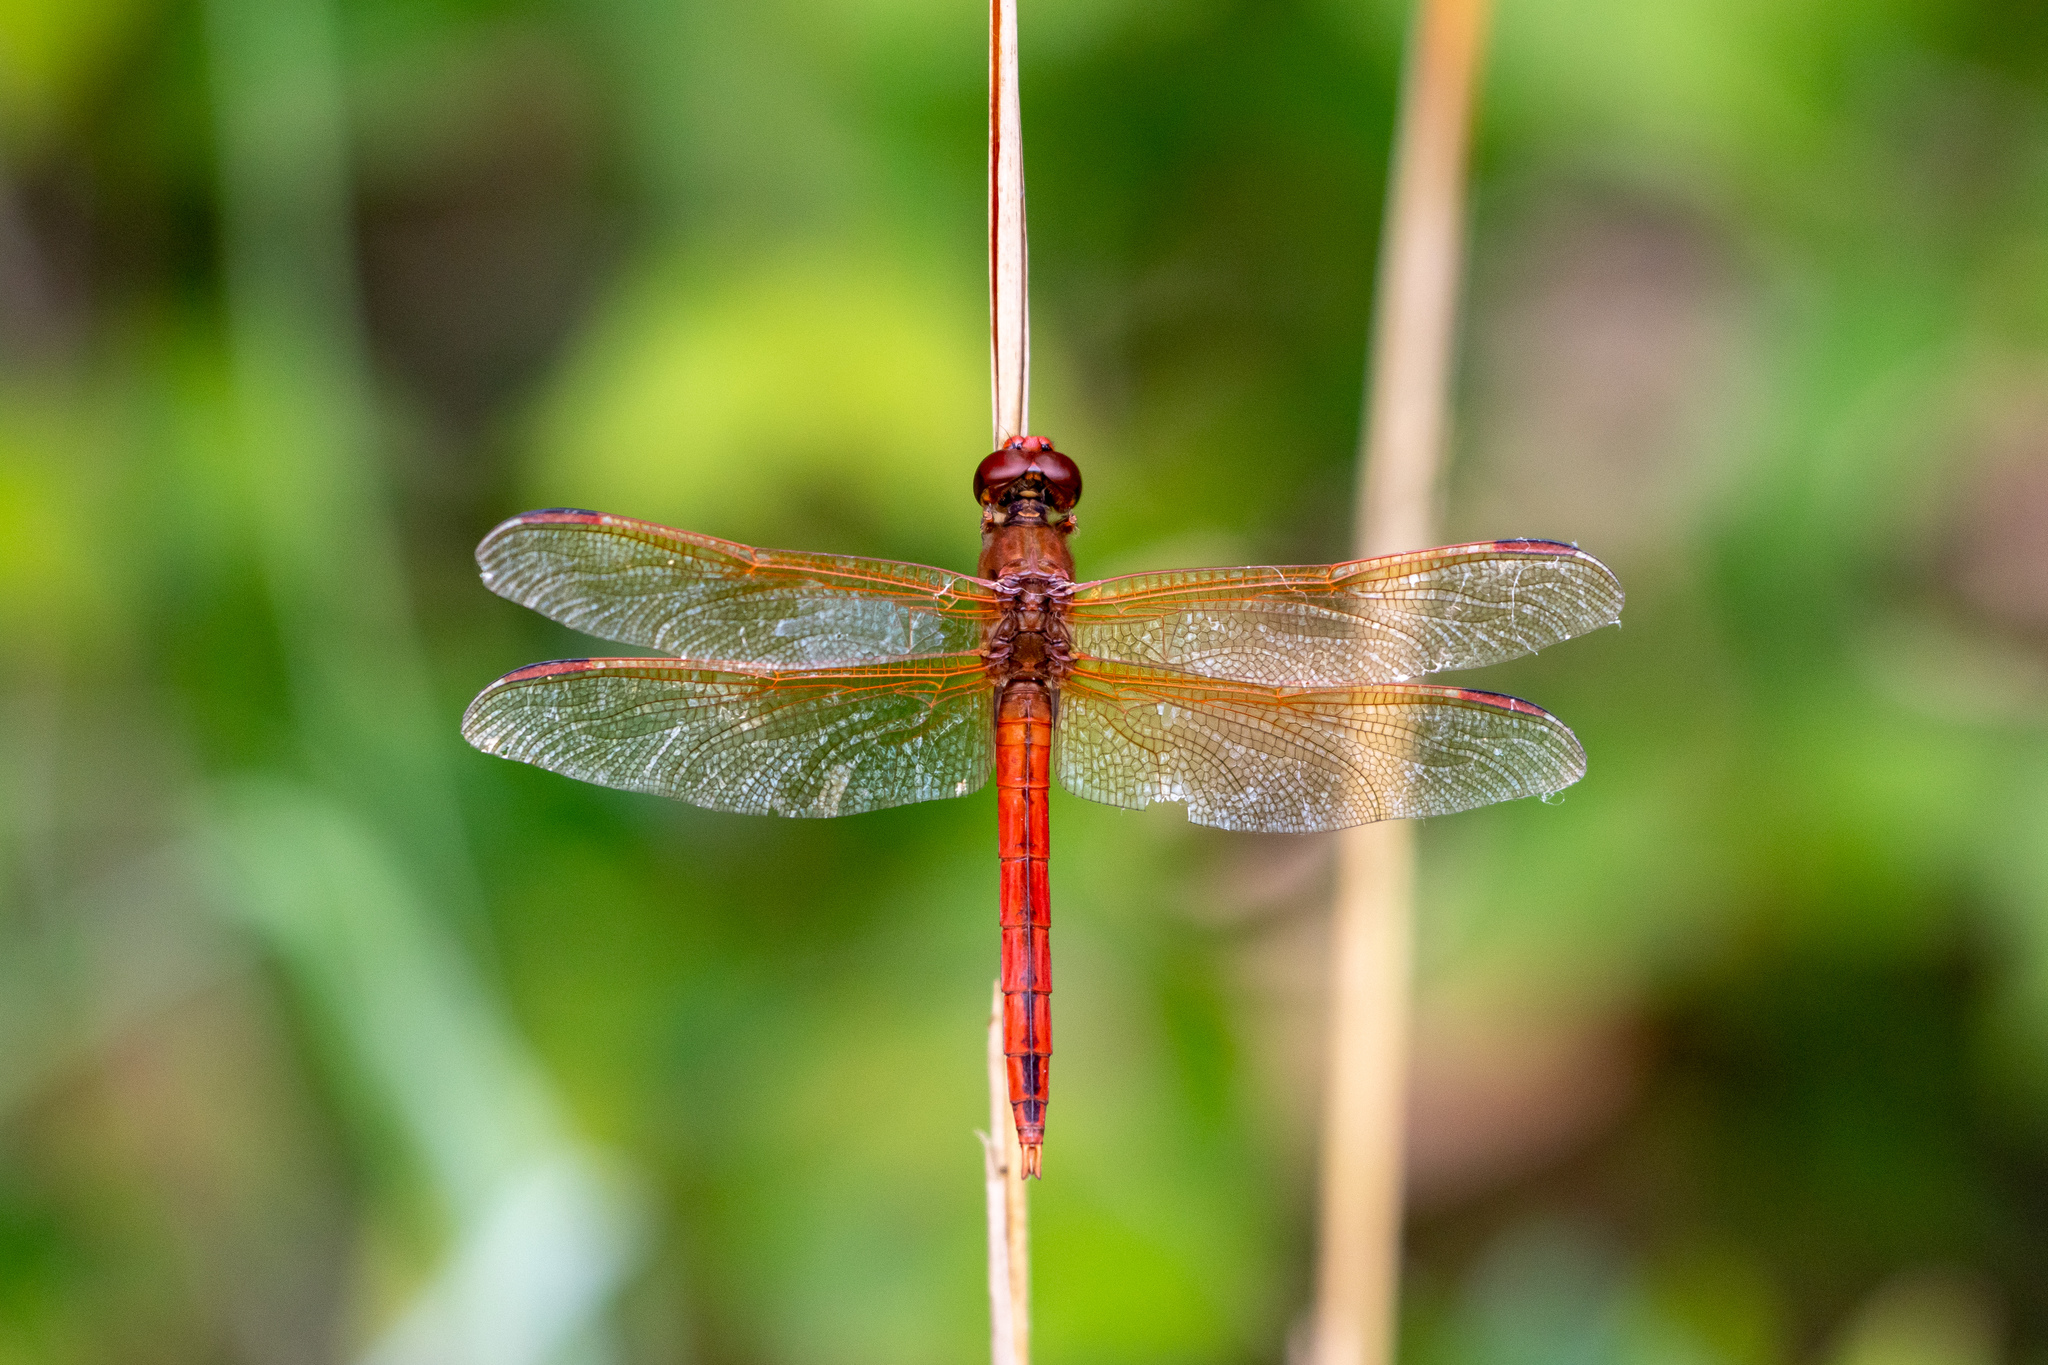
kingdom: Animalia
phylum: Arthropoda
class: Insecta
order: Odonata
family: Libellulidae
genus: Libellula
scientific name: Libellula needhami
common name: Needham's skimmer
